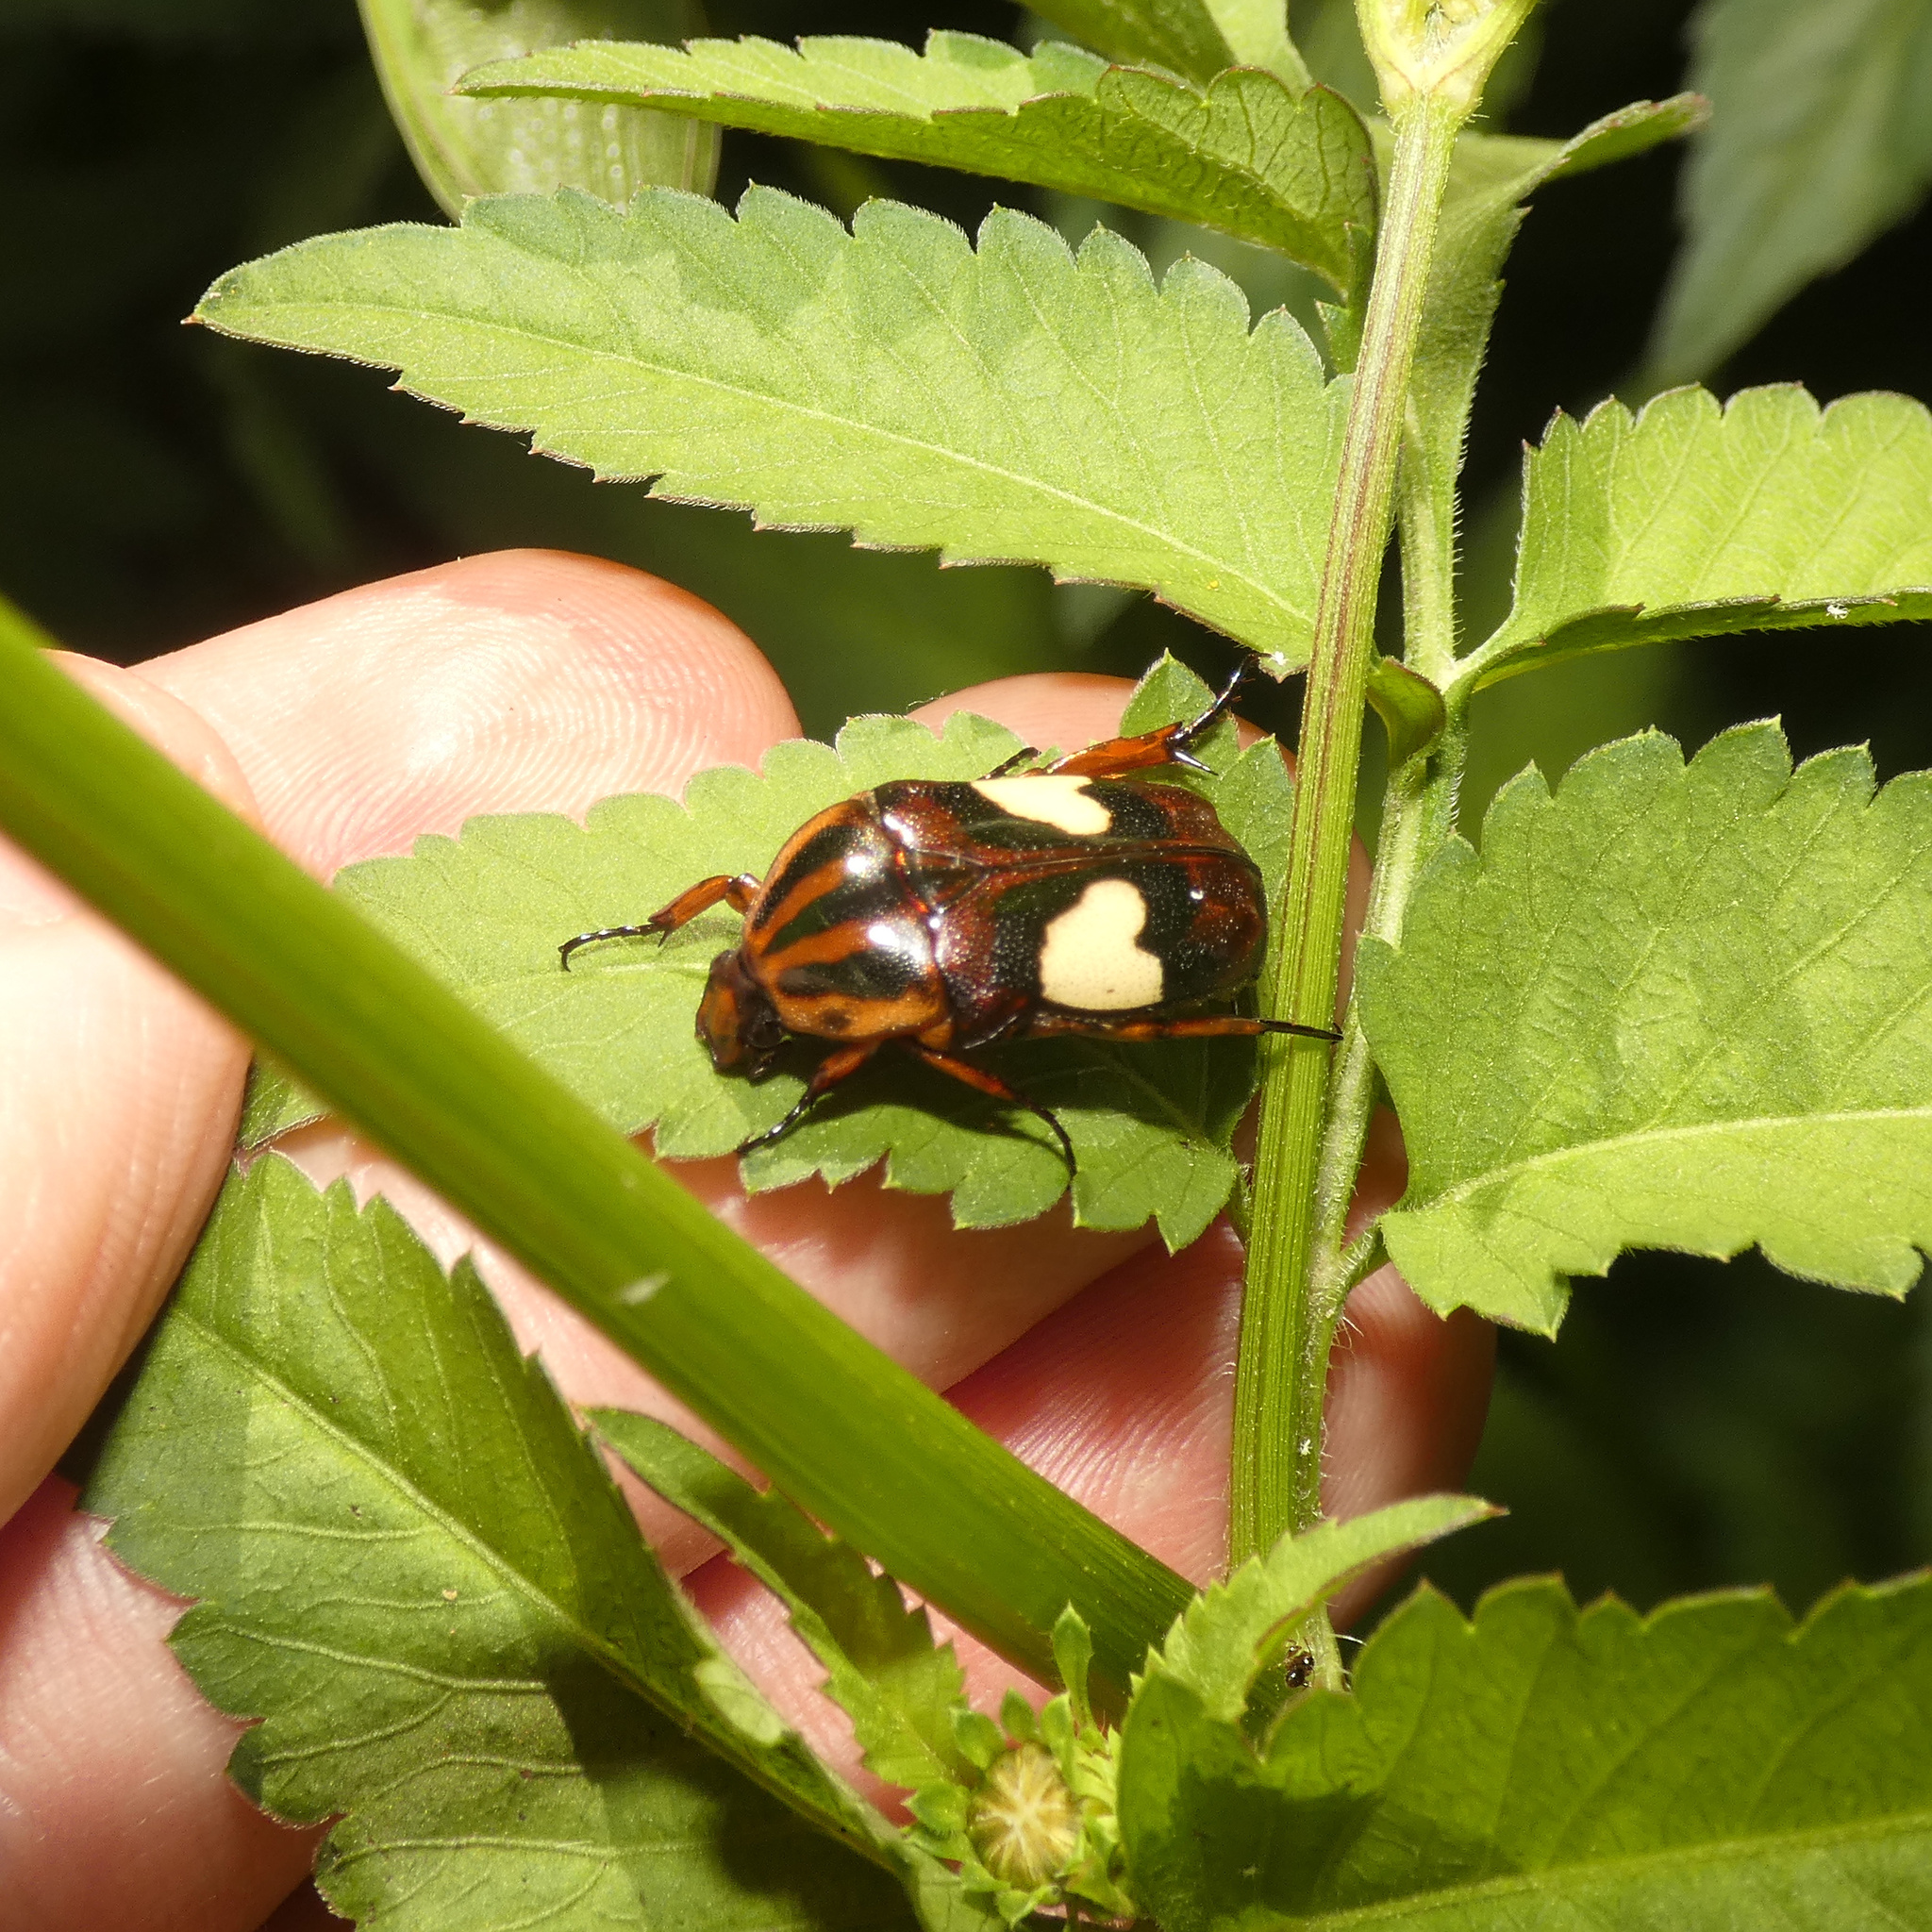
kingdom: Animalia
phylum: Arthropoda
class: Insecta
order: Coleoptera
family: Scarabaeidae
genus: Pedinorrhina
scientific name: Pedinorrhina
